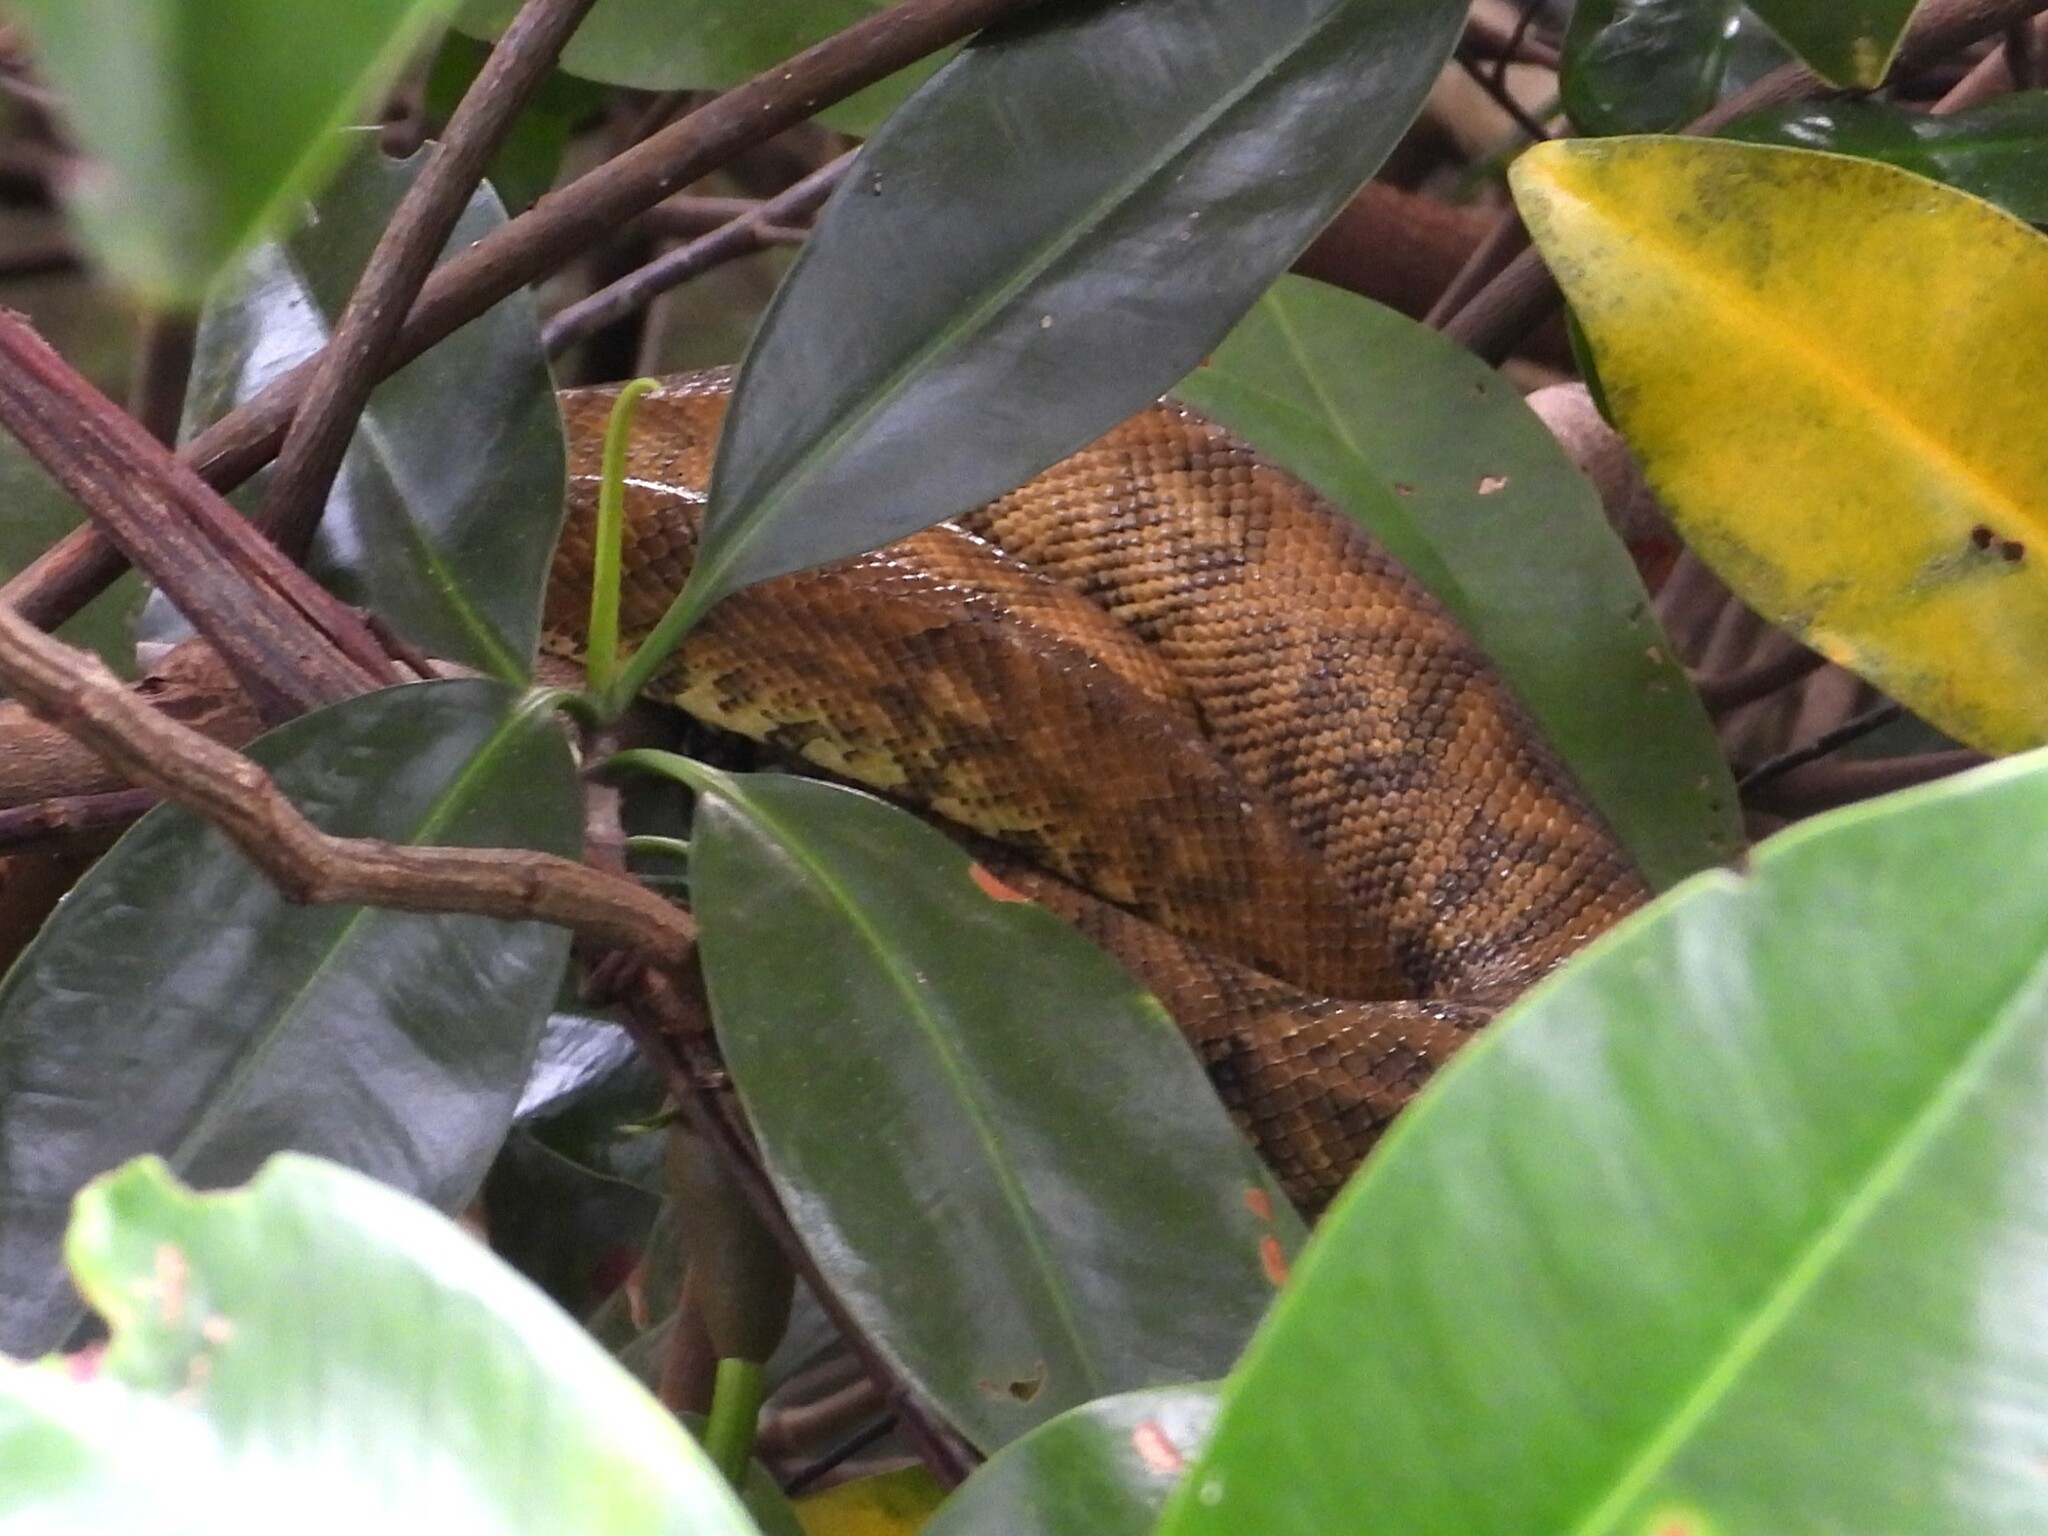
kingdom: Animalia
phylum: Chordata
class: Squamata
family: Boidae
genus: Corallus
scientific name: Corallus ruschenbergerii
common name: Dormilona
